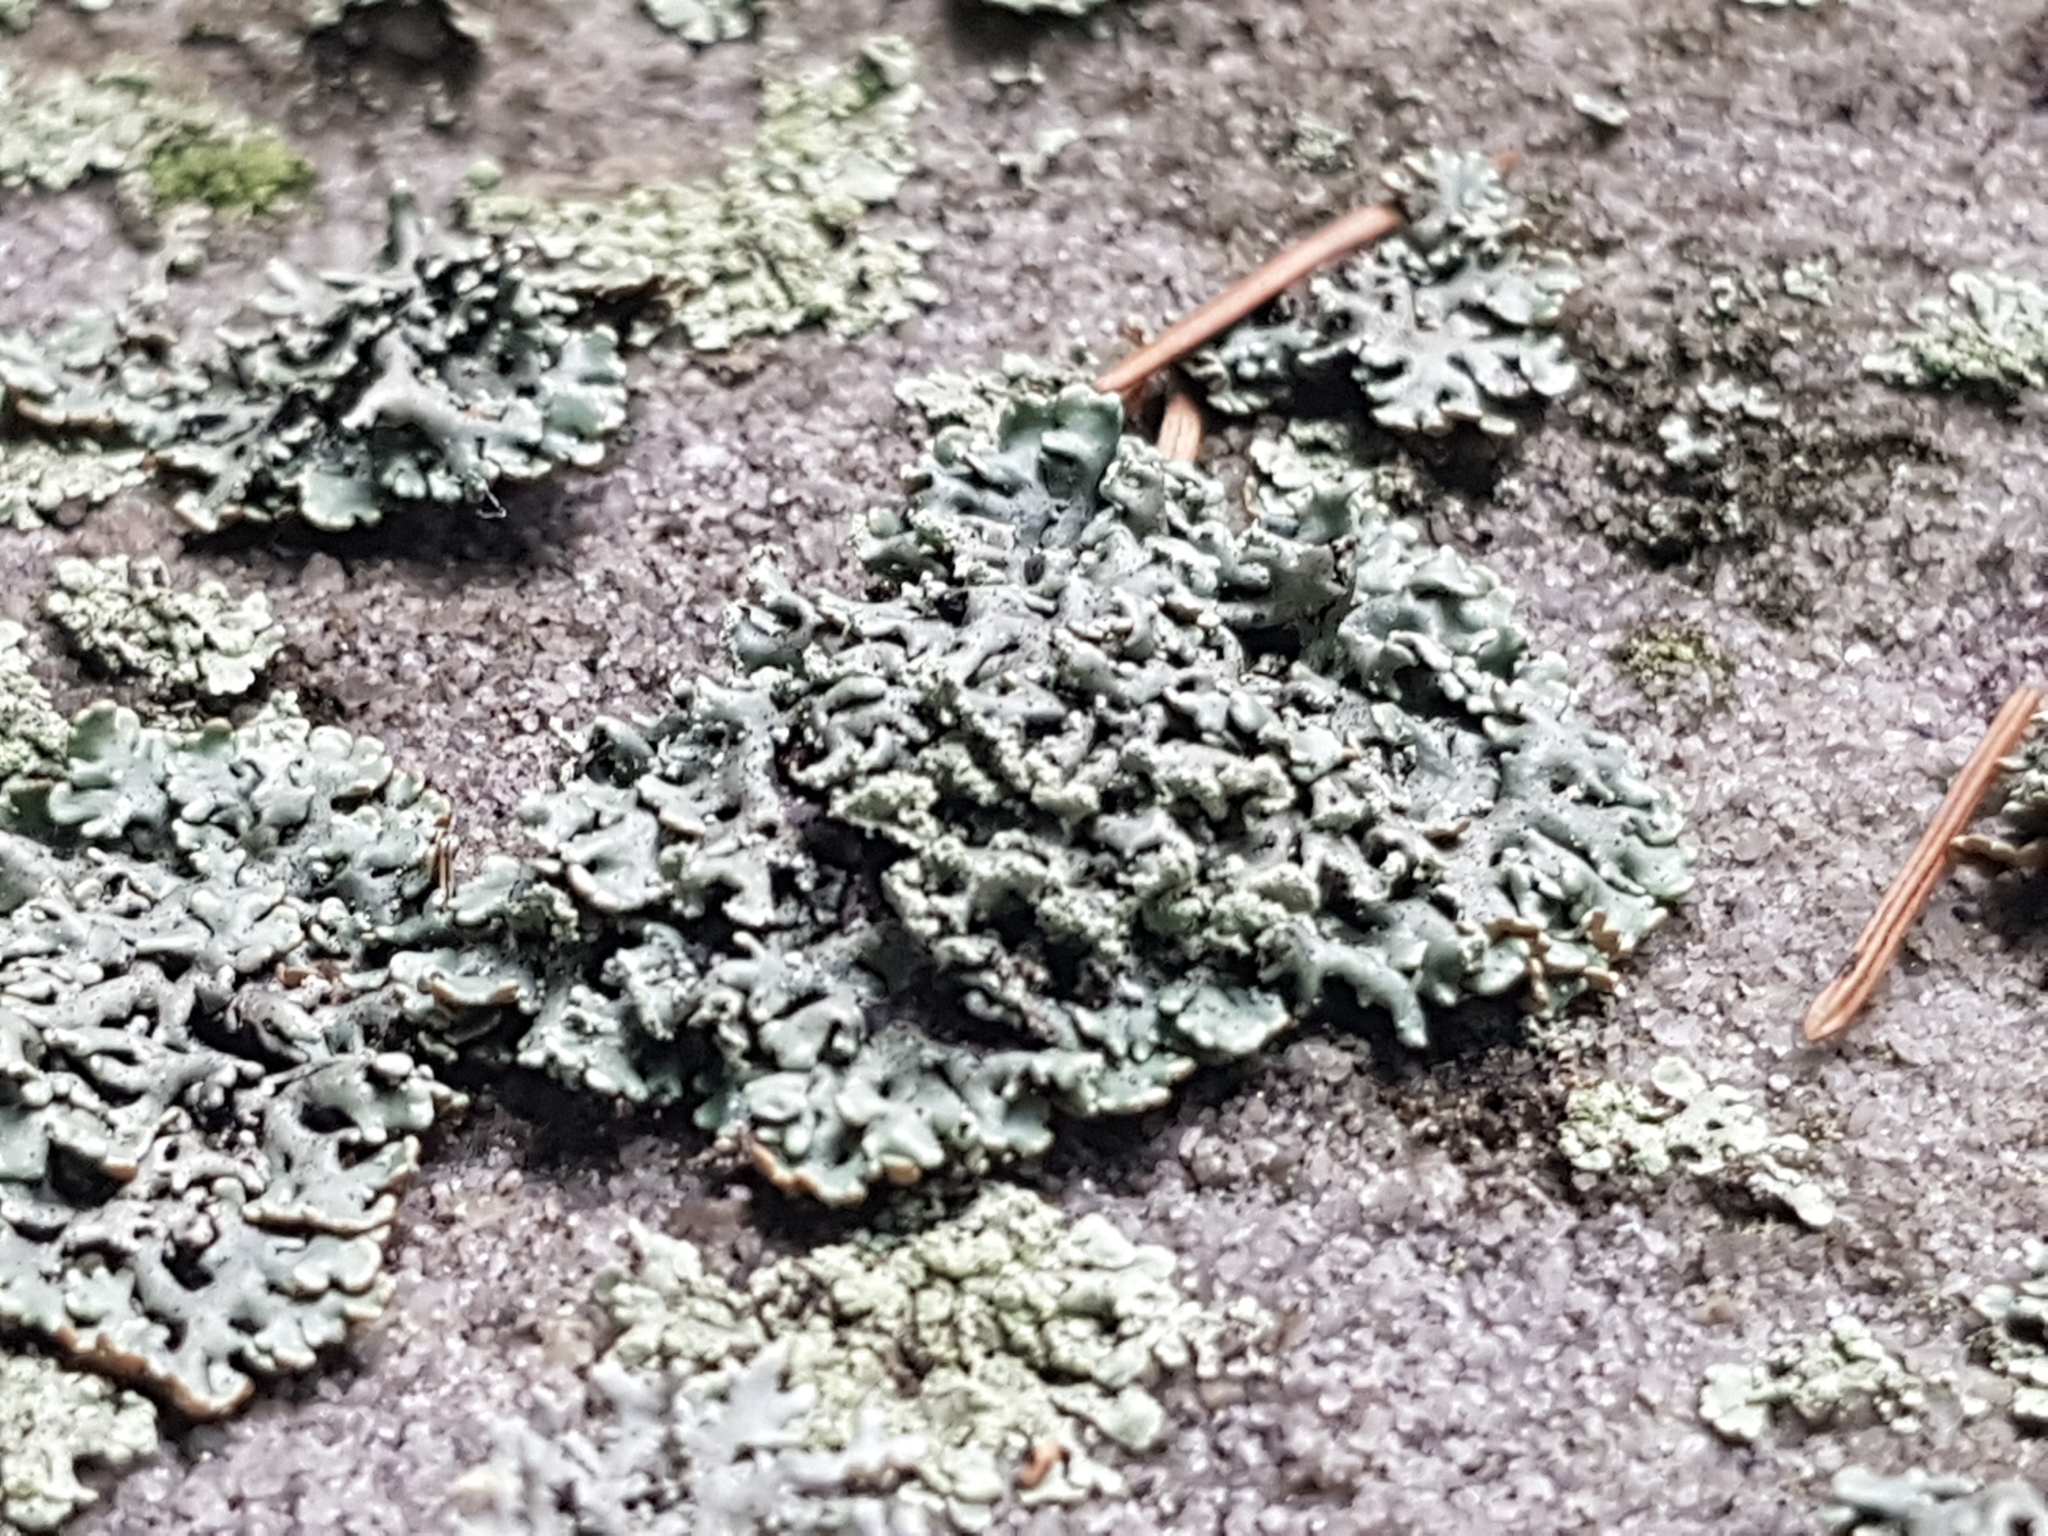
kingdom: Fungi
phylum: Ascomycota
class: Lecanoromycetes
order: Lecanorales
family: Parmeliaceae
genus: Hypogymnia
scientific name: Hypogymnia physodes
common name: Dark crottle
